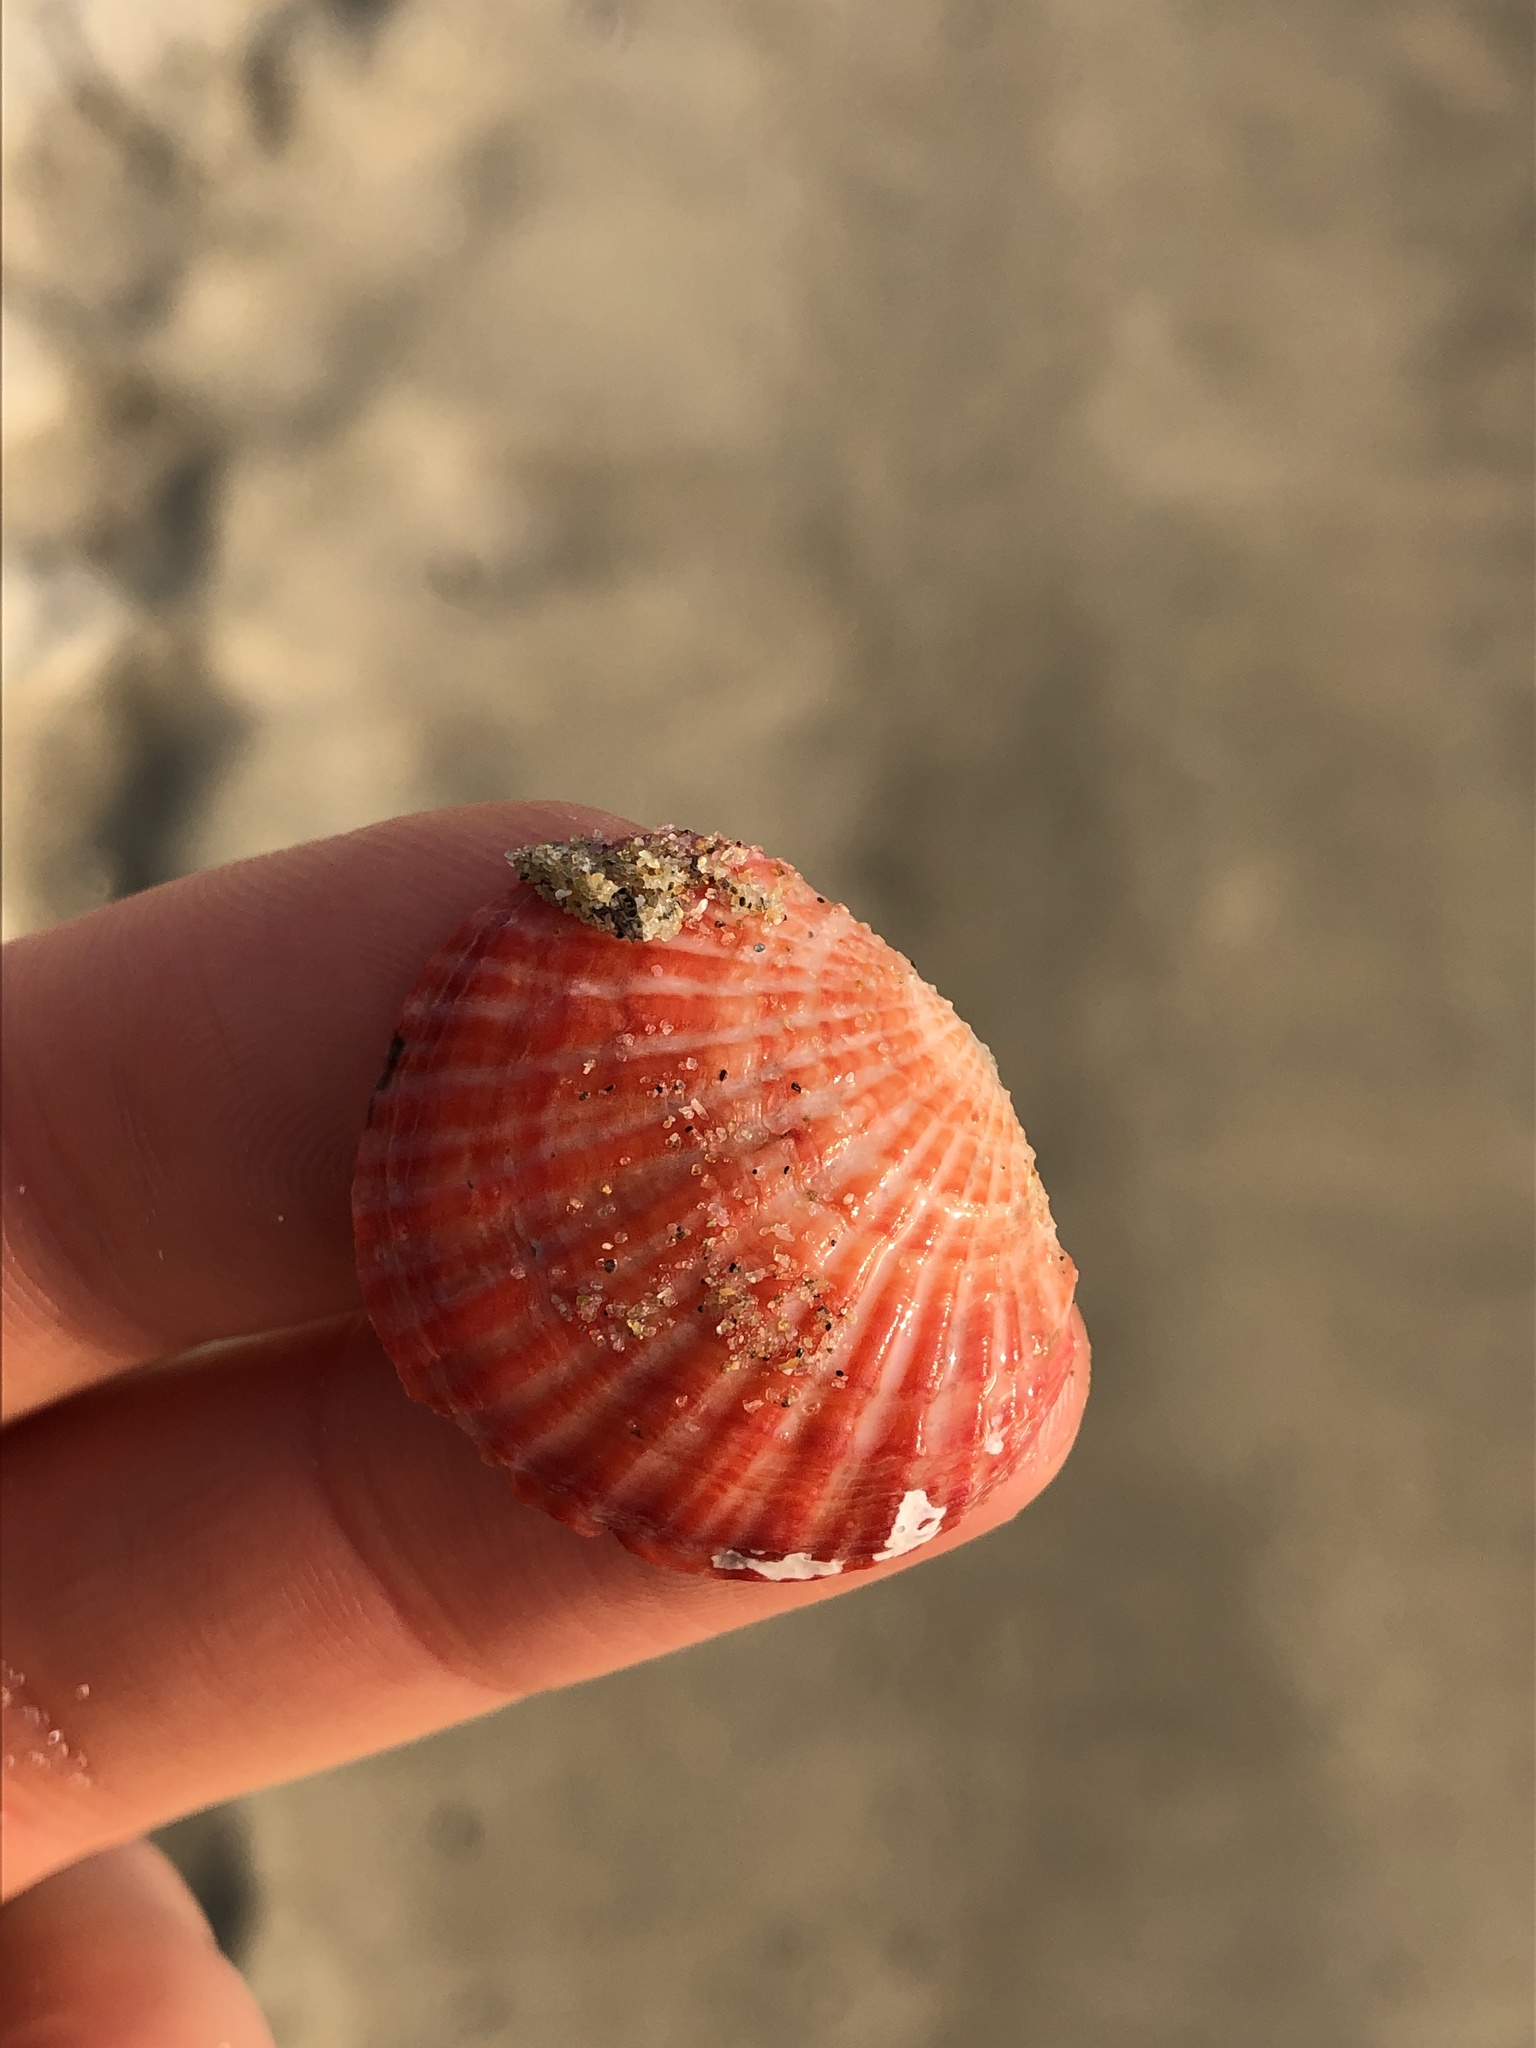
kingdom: Animalia
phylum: Brachiopoda
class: Rhynchonellata
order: Terebratulida
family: Terebrataliidae
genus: Coptothyris
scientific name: Coptothyris grayi
